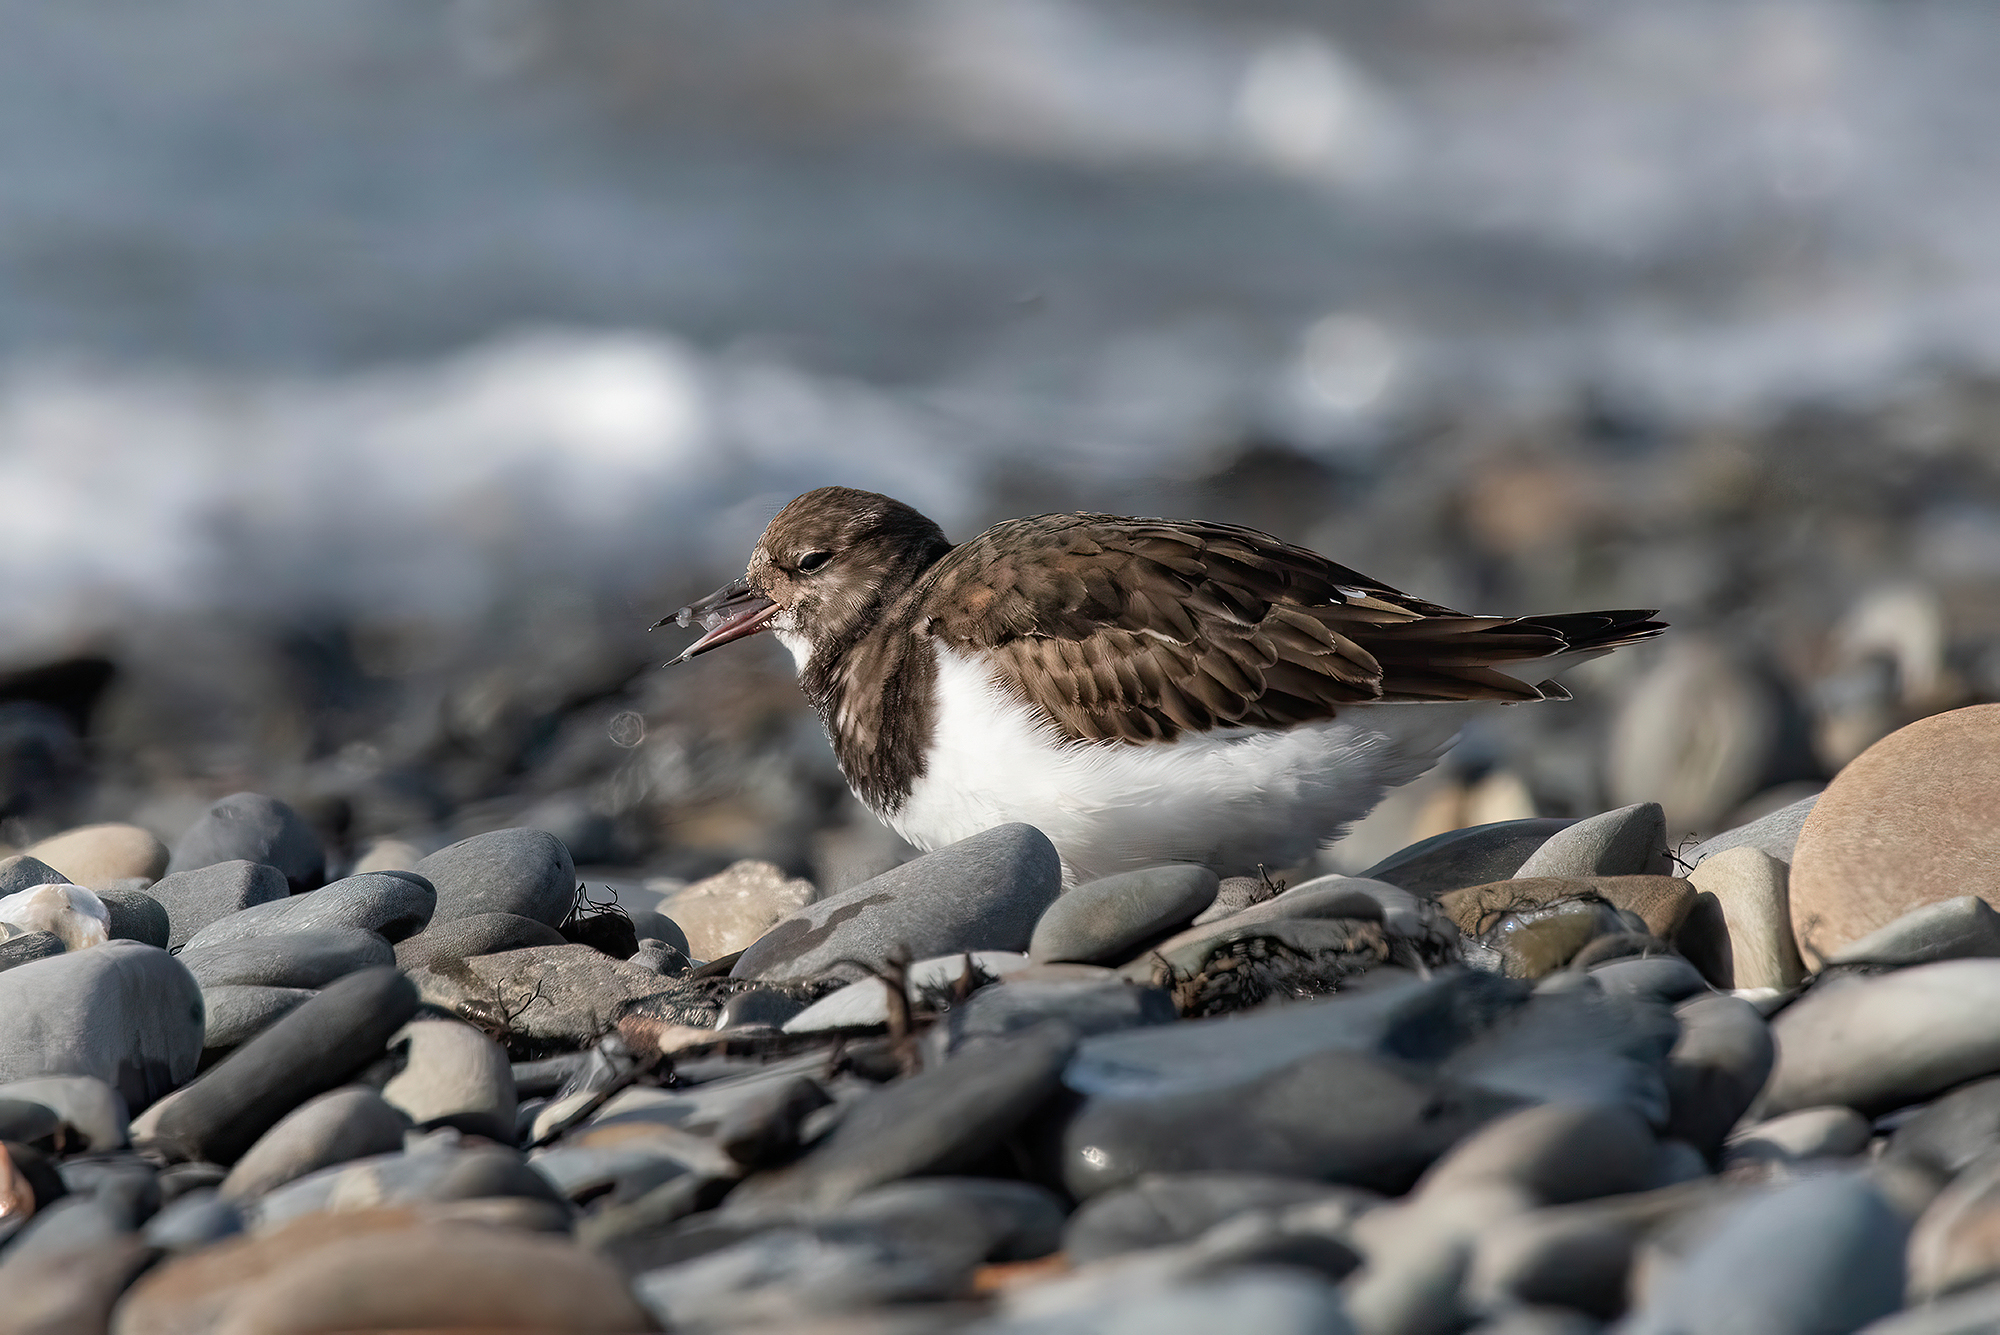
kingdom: Animalia
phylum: Chordata
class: Aves
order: Charadriiformes
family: Scolopacidae
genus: Arenaria
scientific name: Arenaria interpres
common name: Ruddy turnstone
